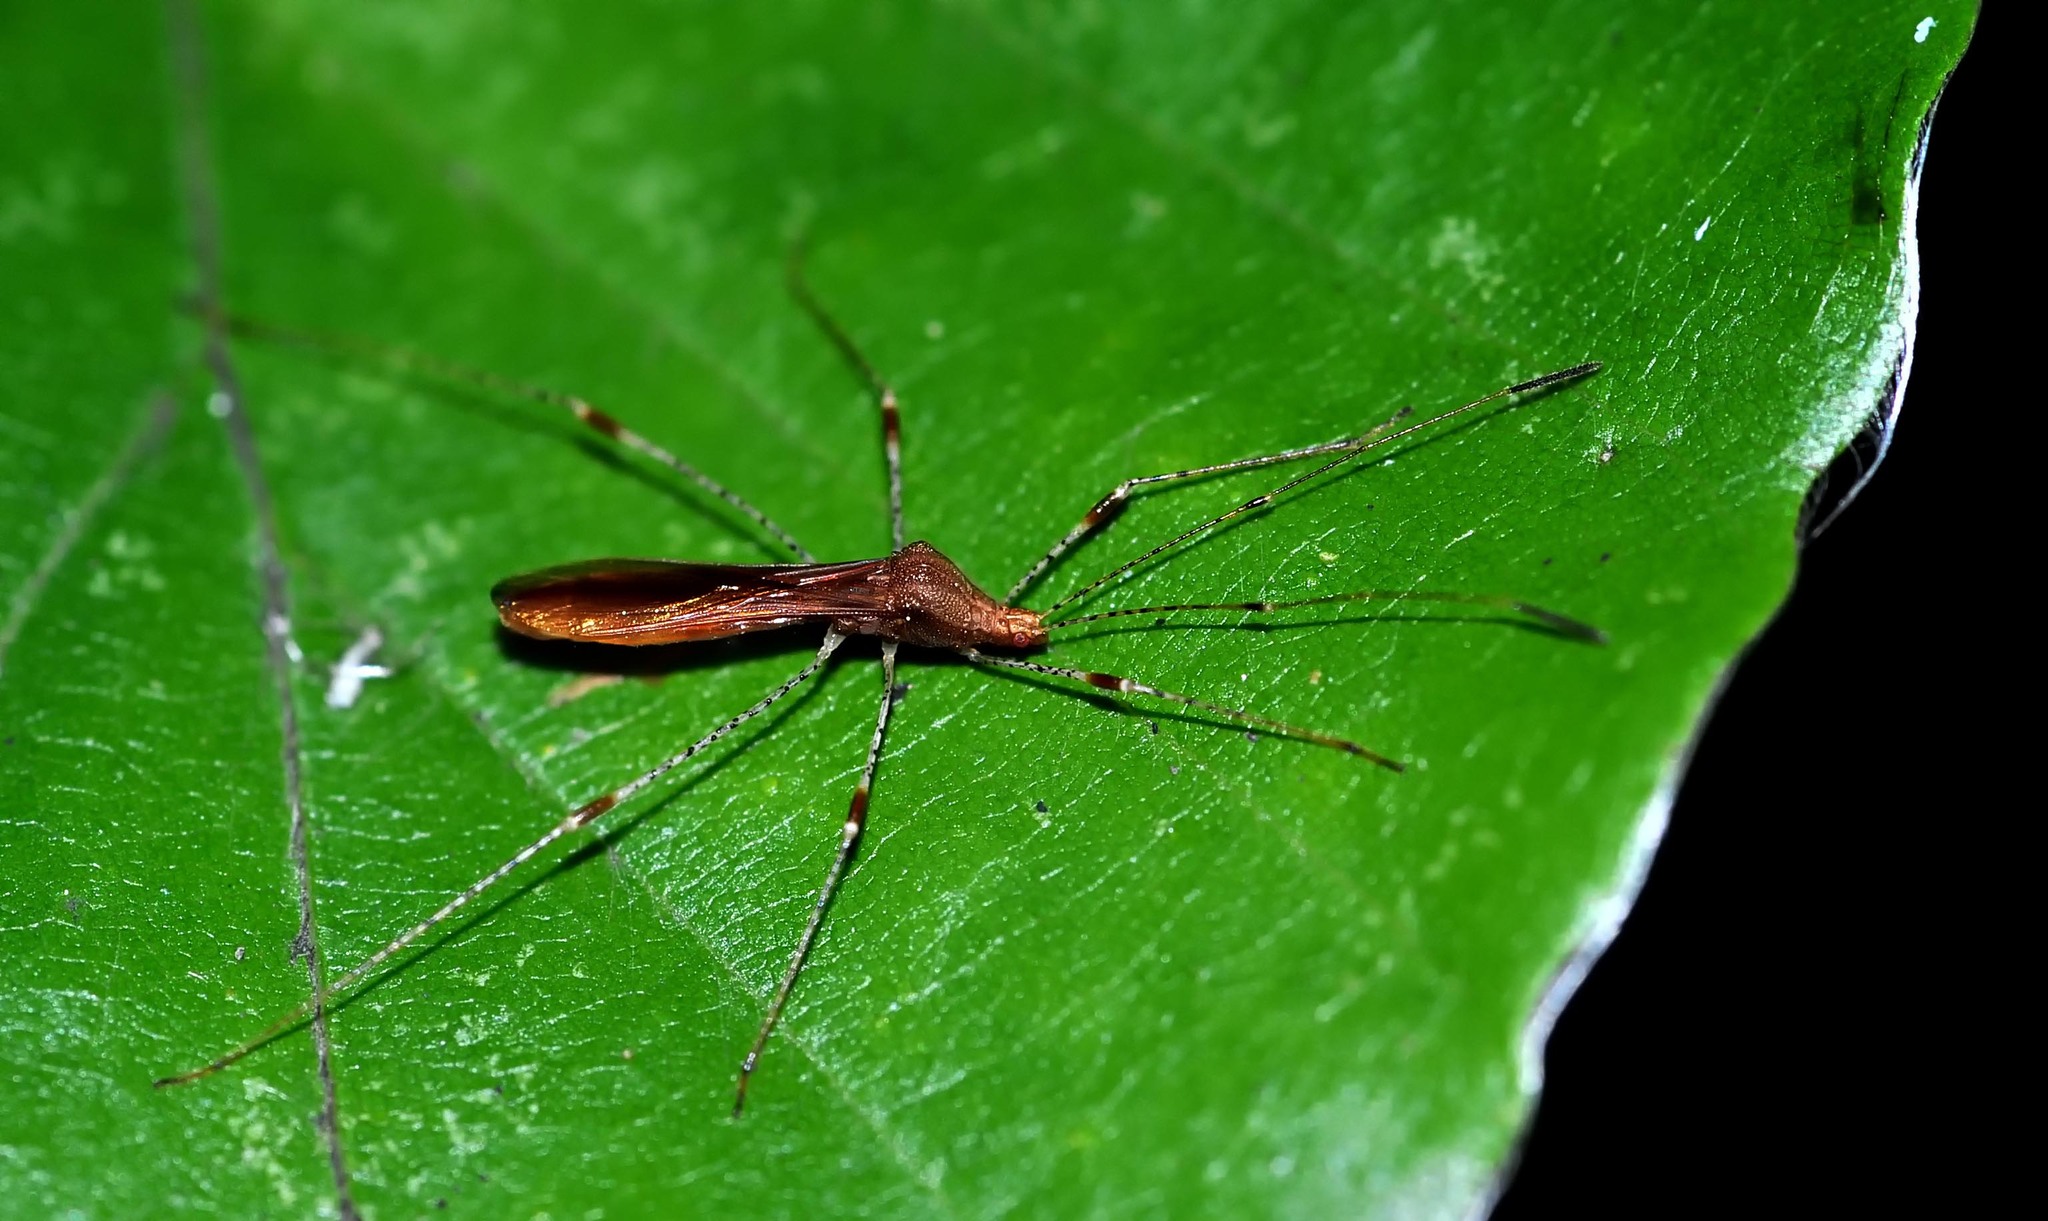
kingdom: Animalia
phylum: Arthropoda
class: Insecta
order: Hemiptera
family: Berytidae
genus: Metatropis
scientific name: Metatropis rufescens
